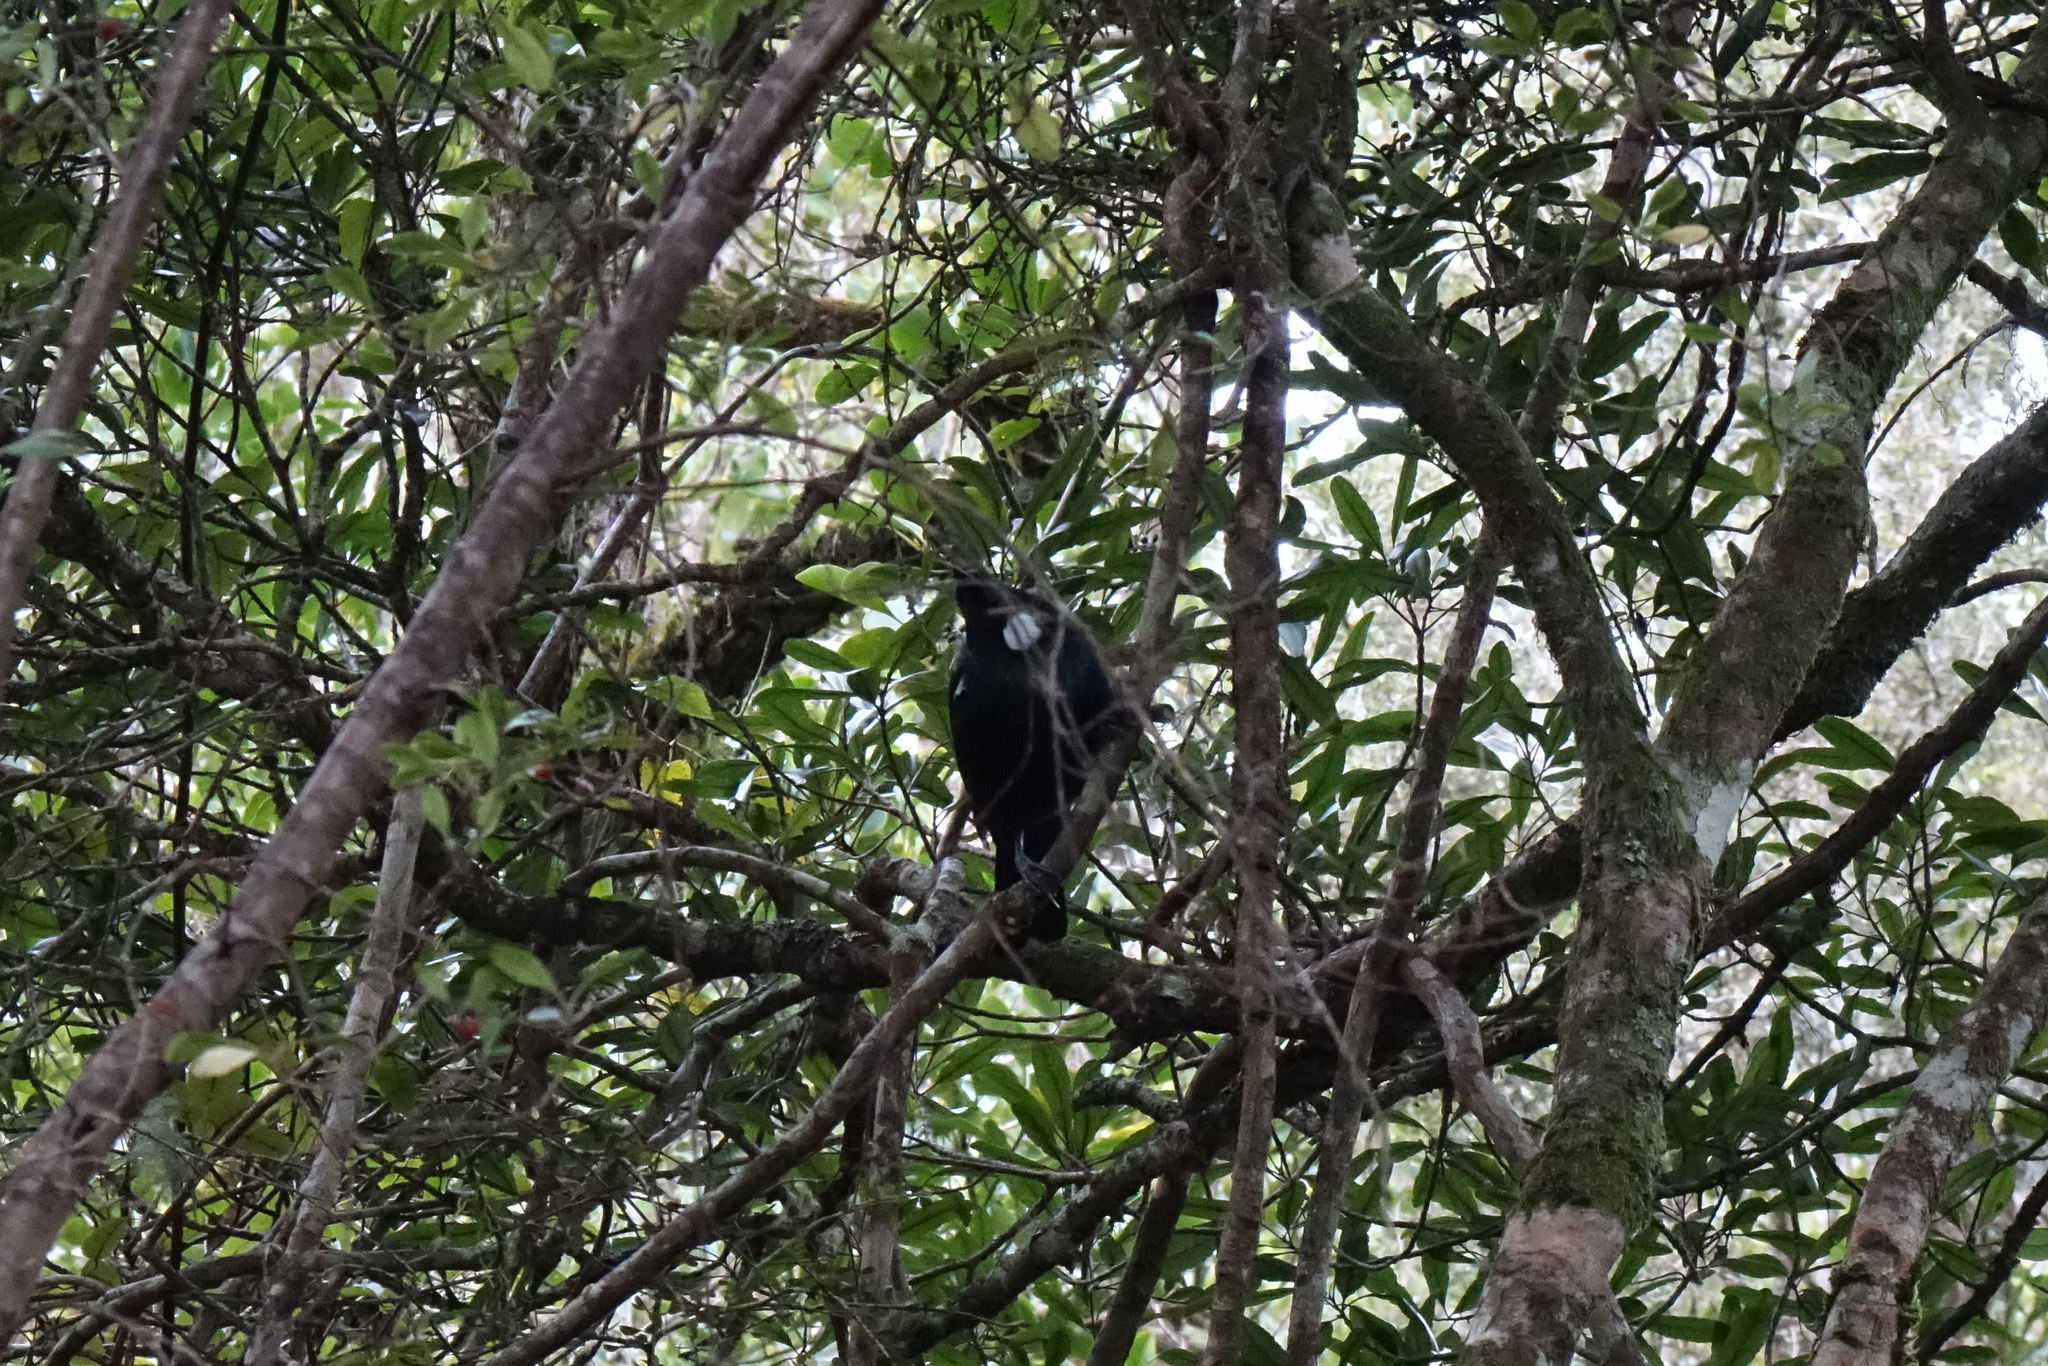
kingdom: Animalia
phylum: Chordata
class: Aves
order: Passeriformes
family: Meliphagidae
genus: Prosthemadera
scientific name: Prosthemadera novaeseelandiae
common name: Tui
